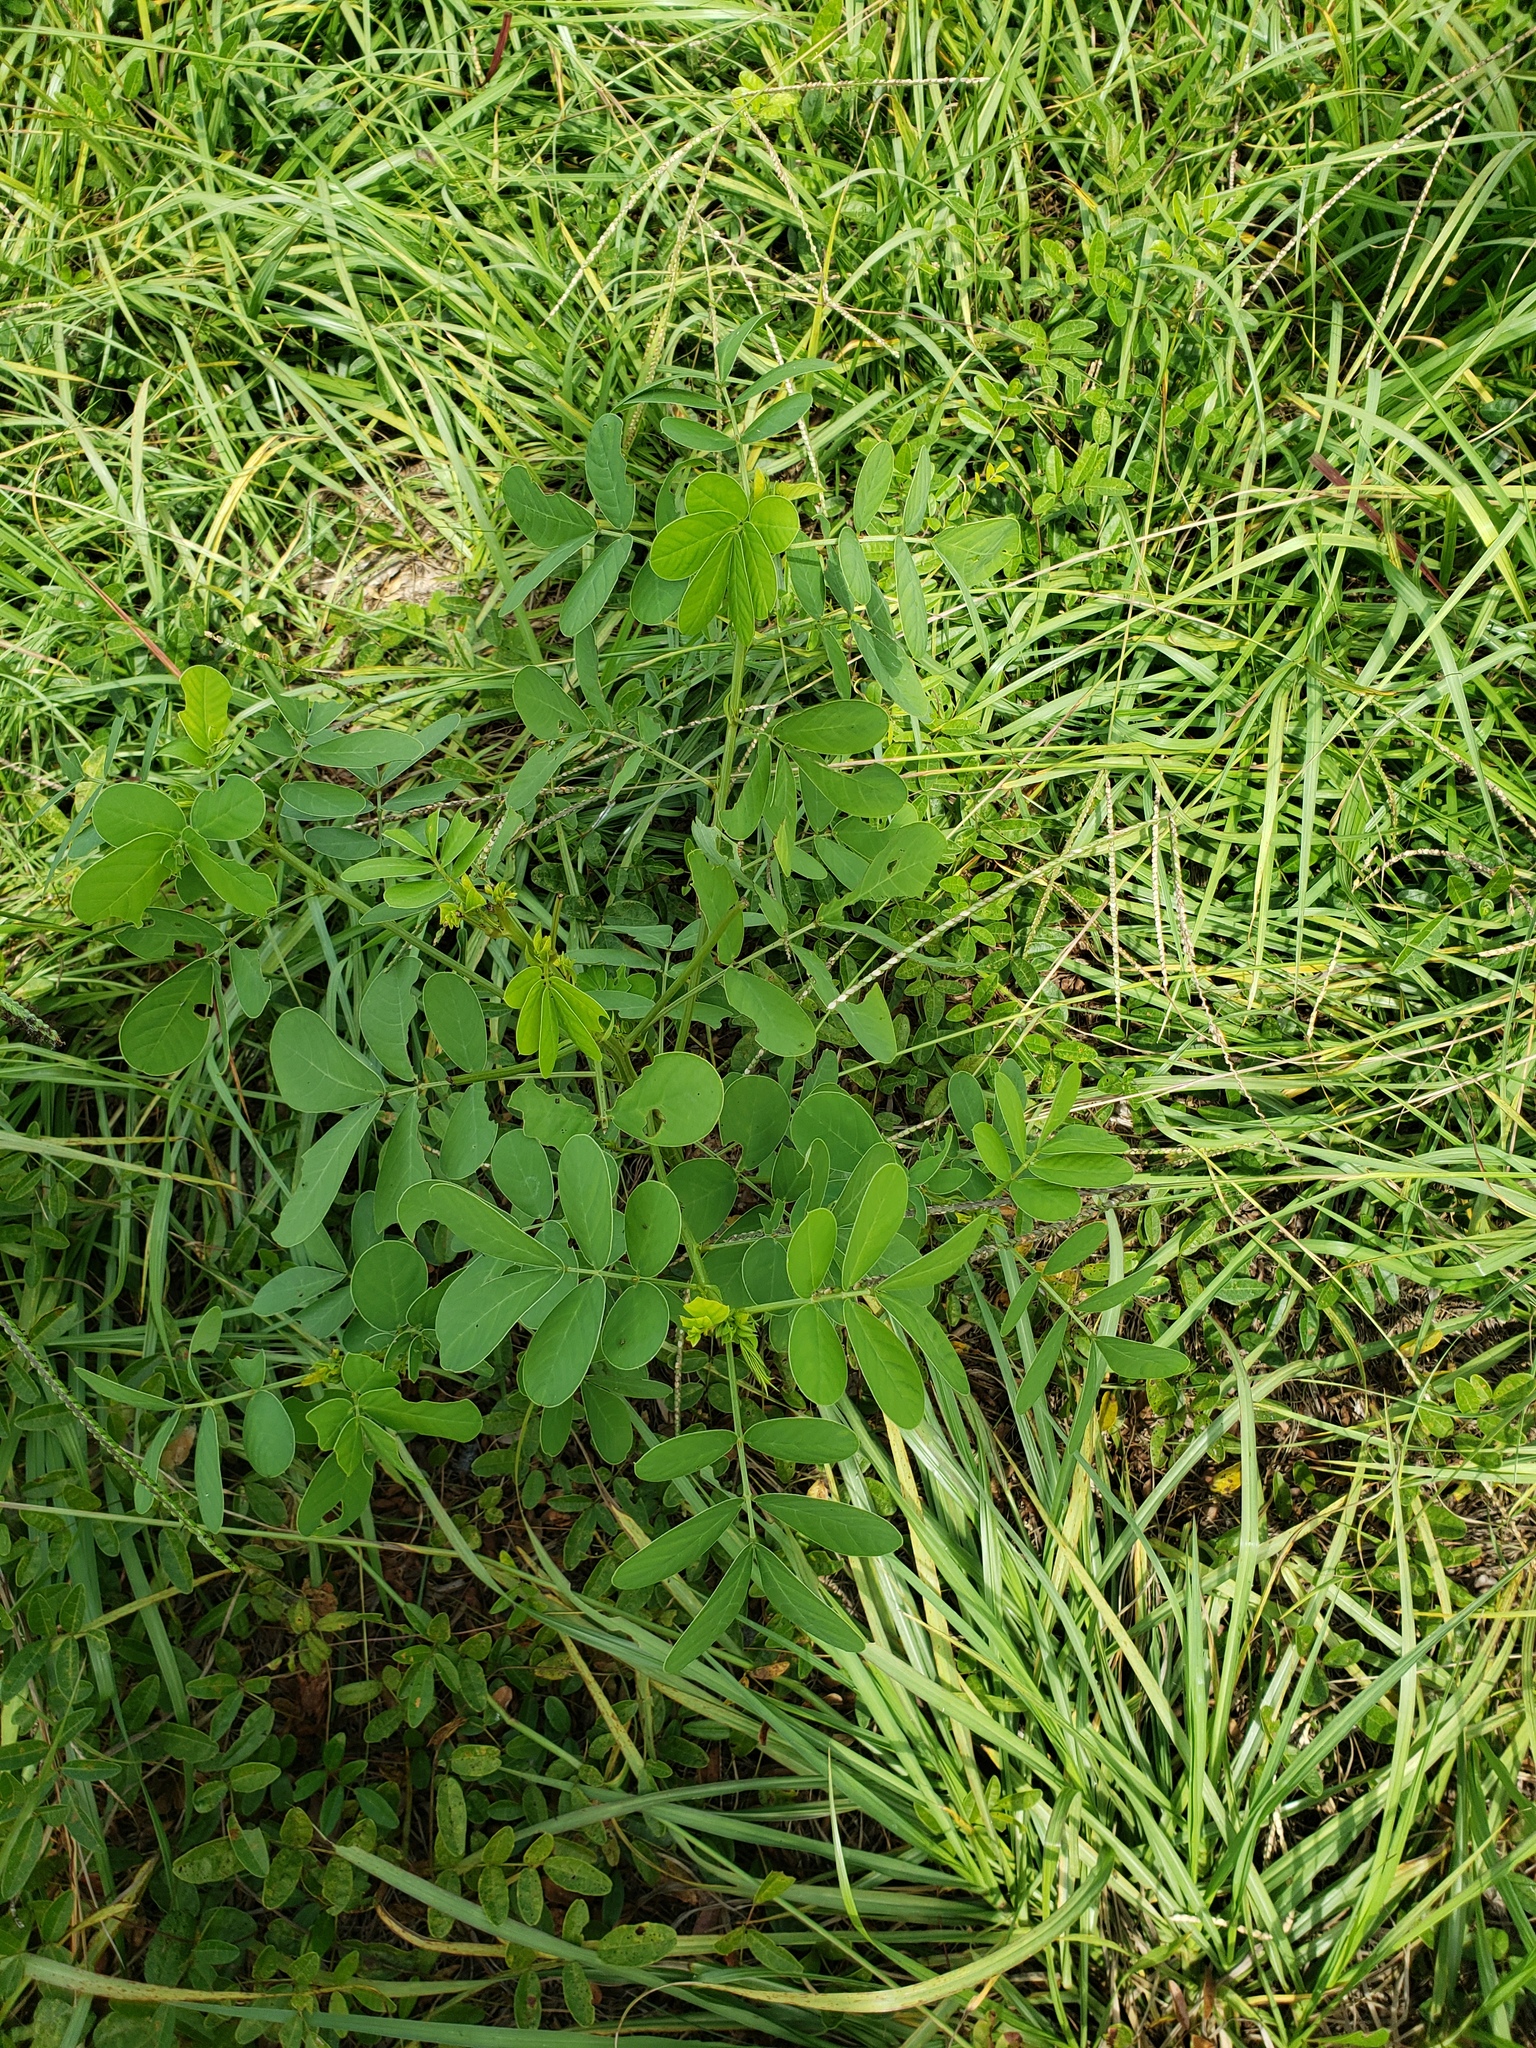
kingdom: Plantae
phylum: Tracheophyta
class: Magnoliopsida
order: Fabales
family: Fabaceae
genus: Senna
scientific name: Senna obtusifolia
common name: Java-bean
